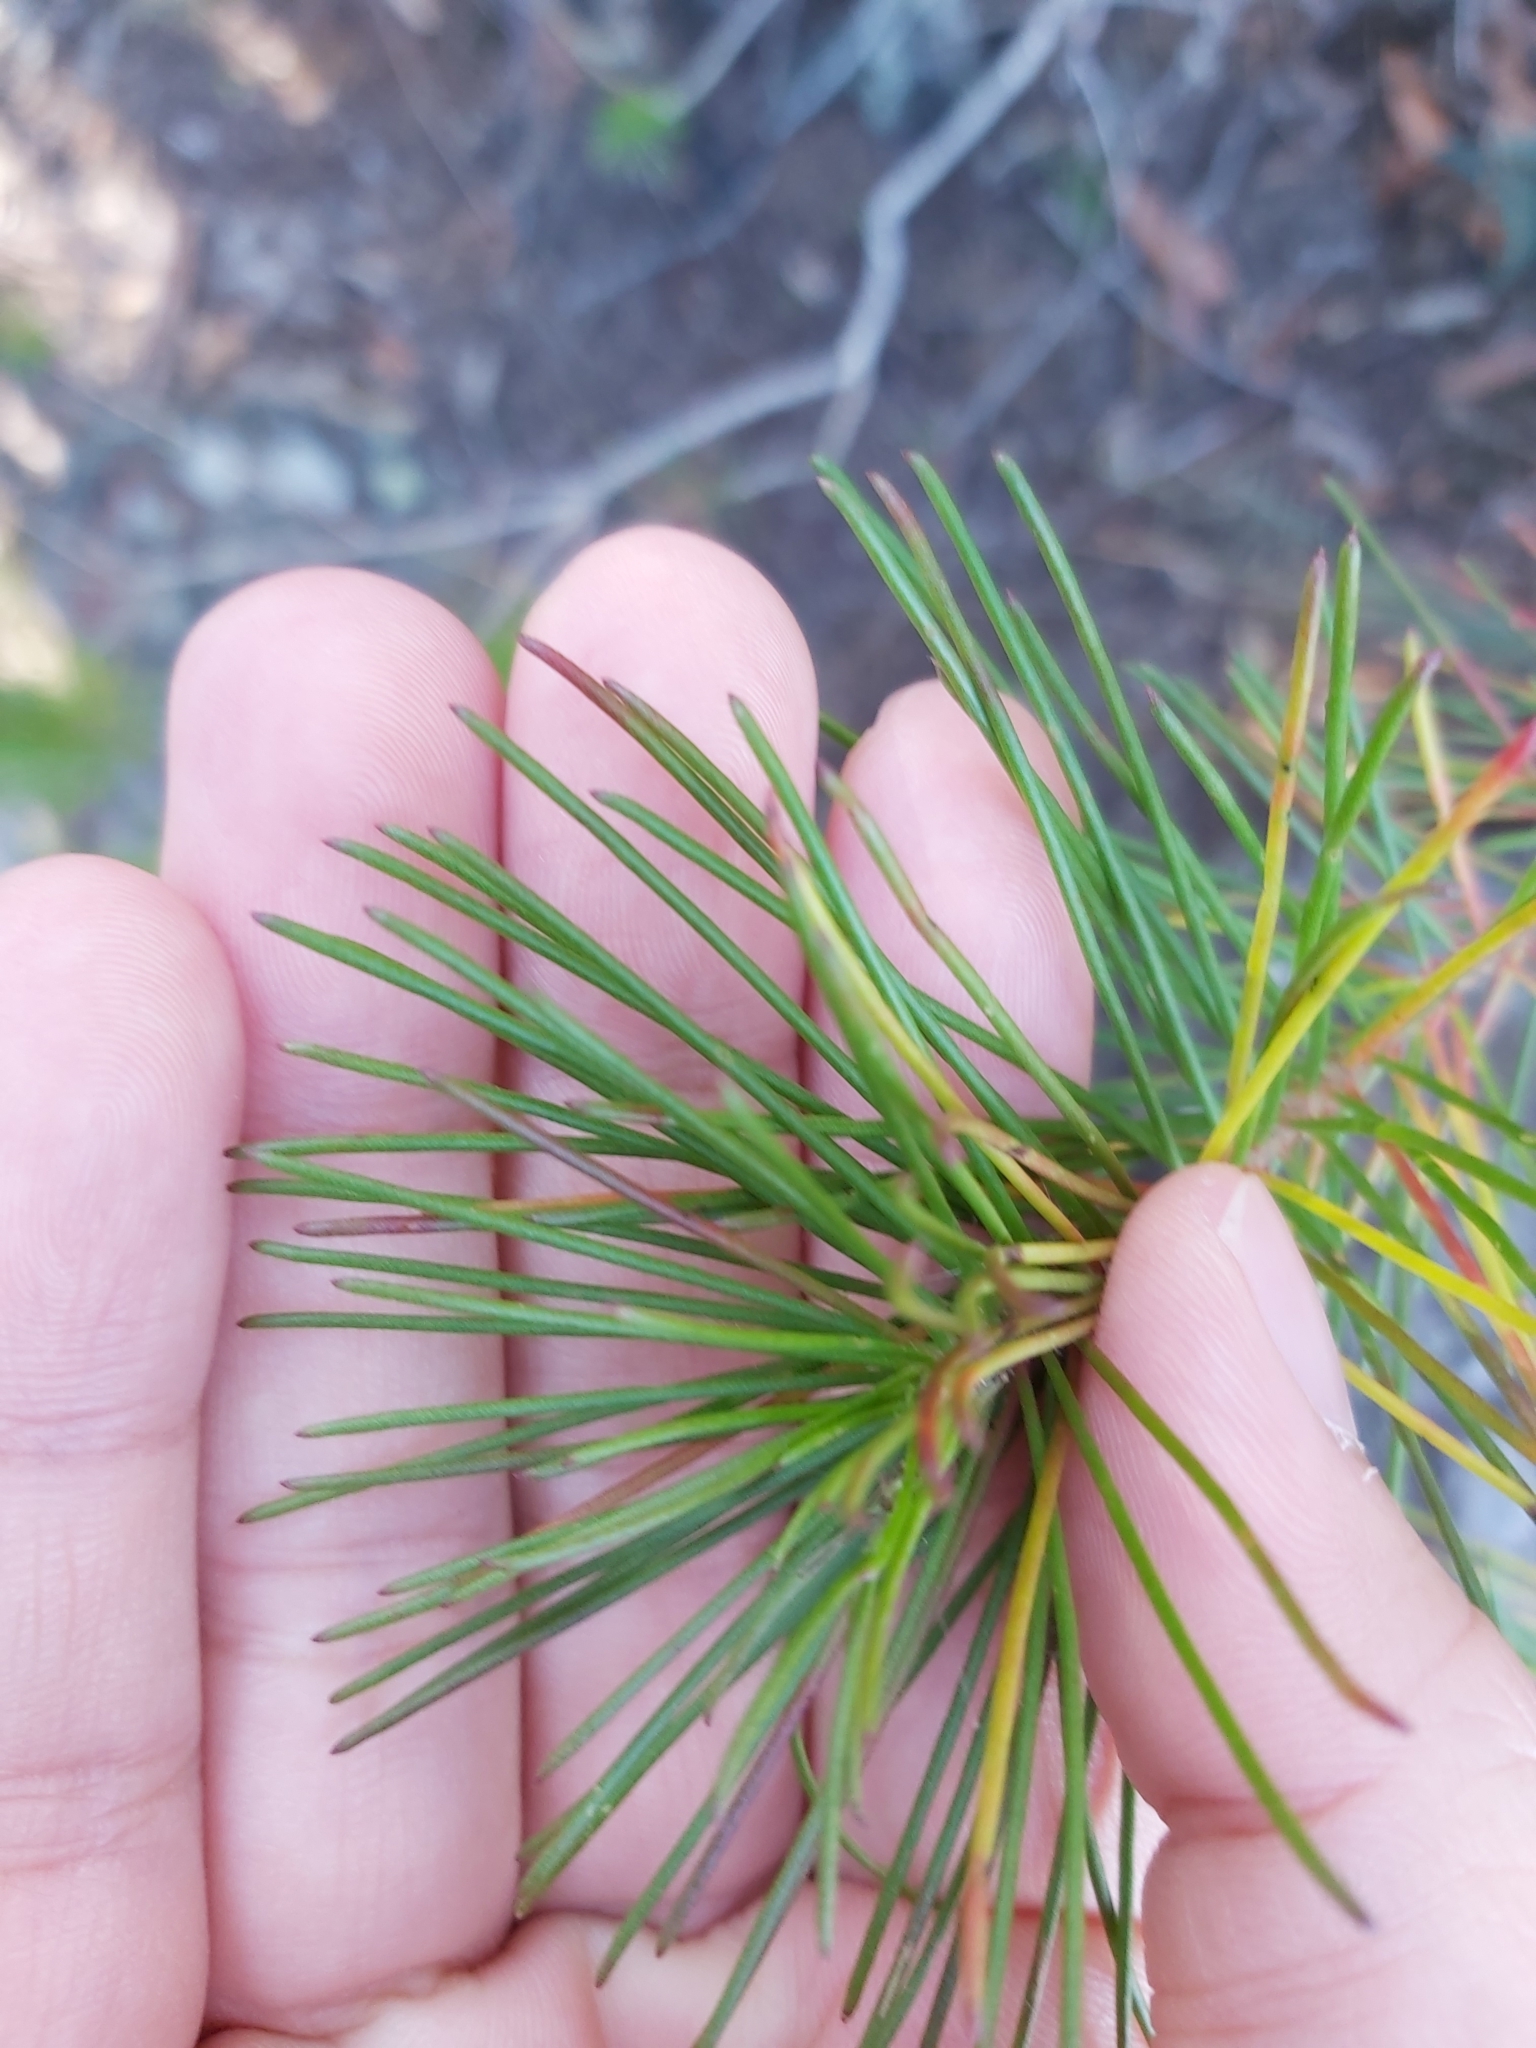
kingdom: Plantae
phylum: Tracheophyta
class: Magnoliopsida
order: Proteales
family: Proteaceae
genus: Persoonia
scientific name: Persoonia pinifolia
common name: Pine-leaf geebung
